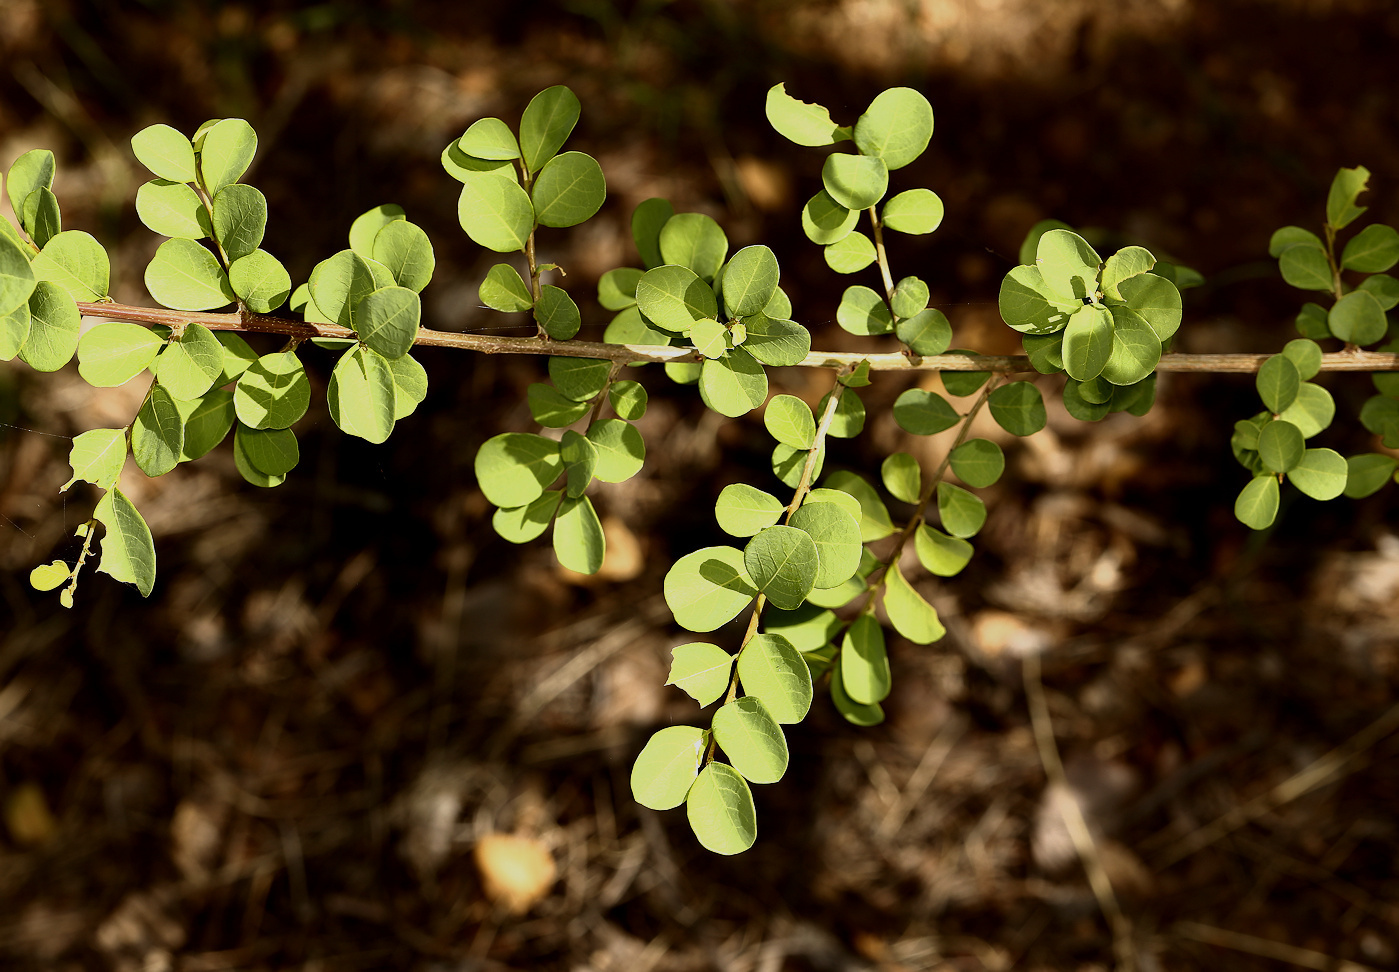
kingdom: Plantae
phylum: Tracheophyta
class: Magnoliopsida
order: Malpighiales
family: Phyllanthaceae
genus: Phyllanthus
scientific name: Phyllanthus reticulatus
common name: Potato bush
